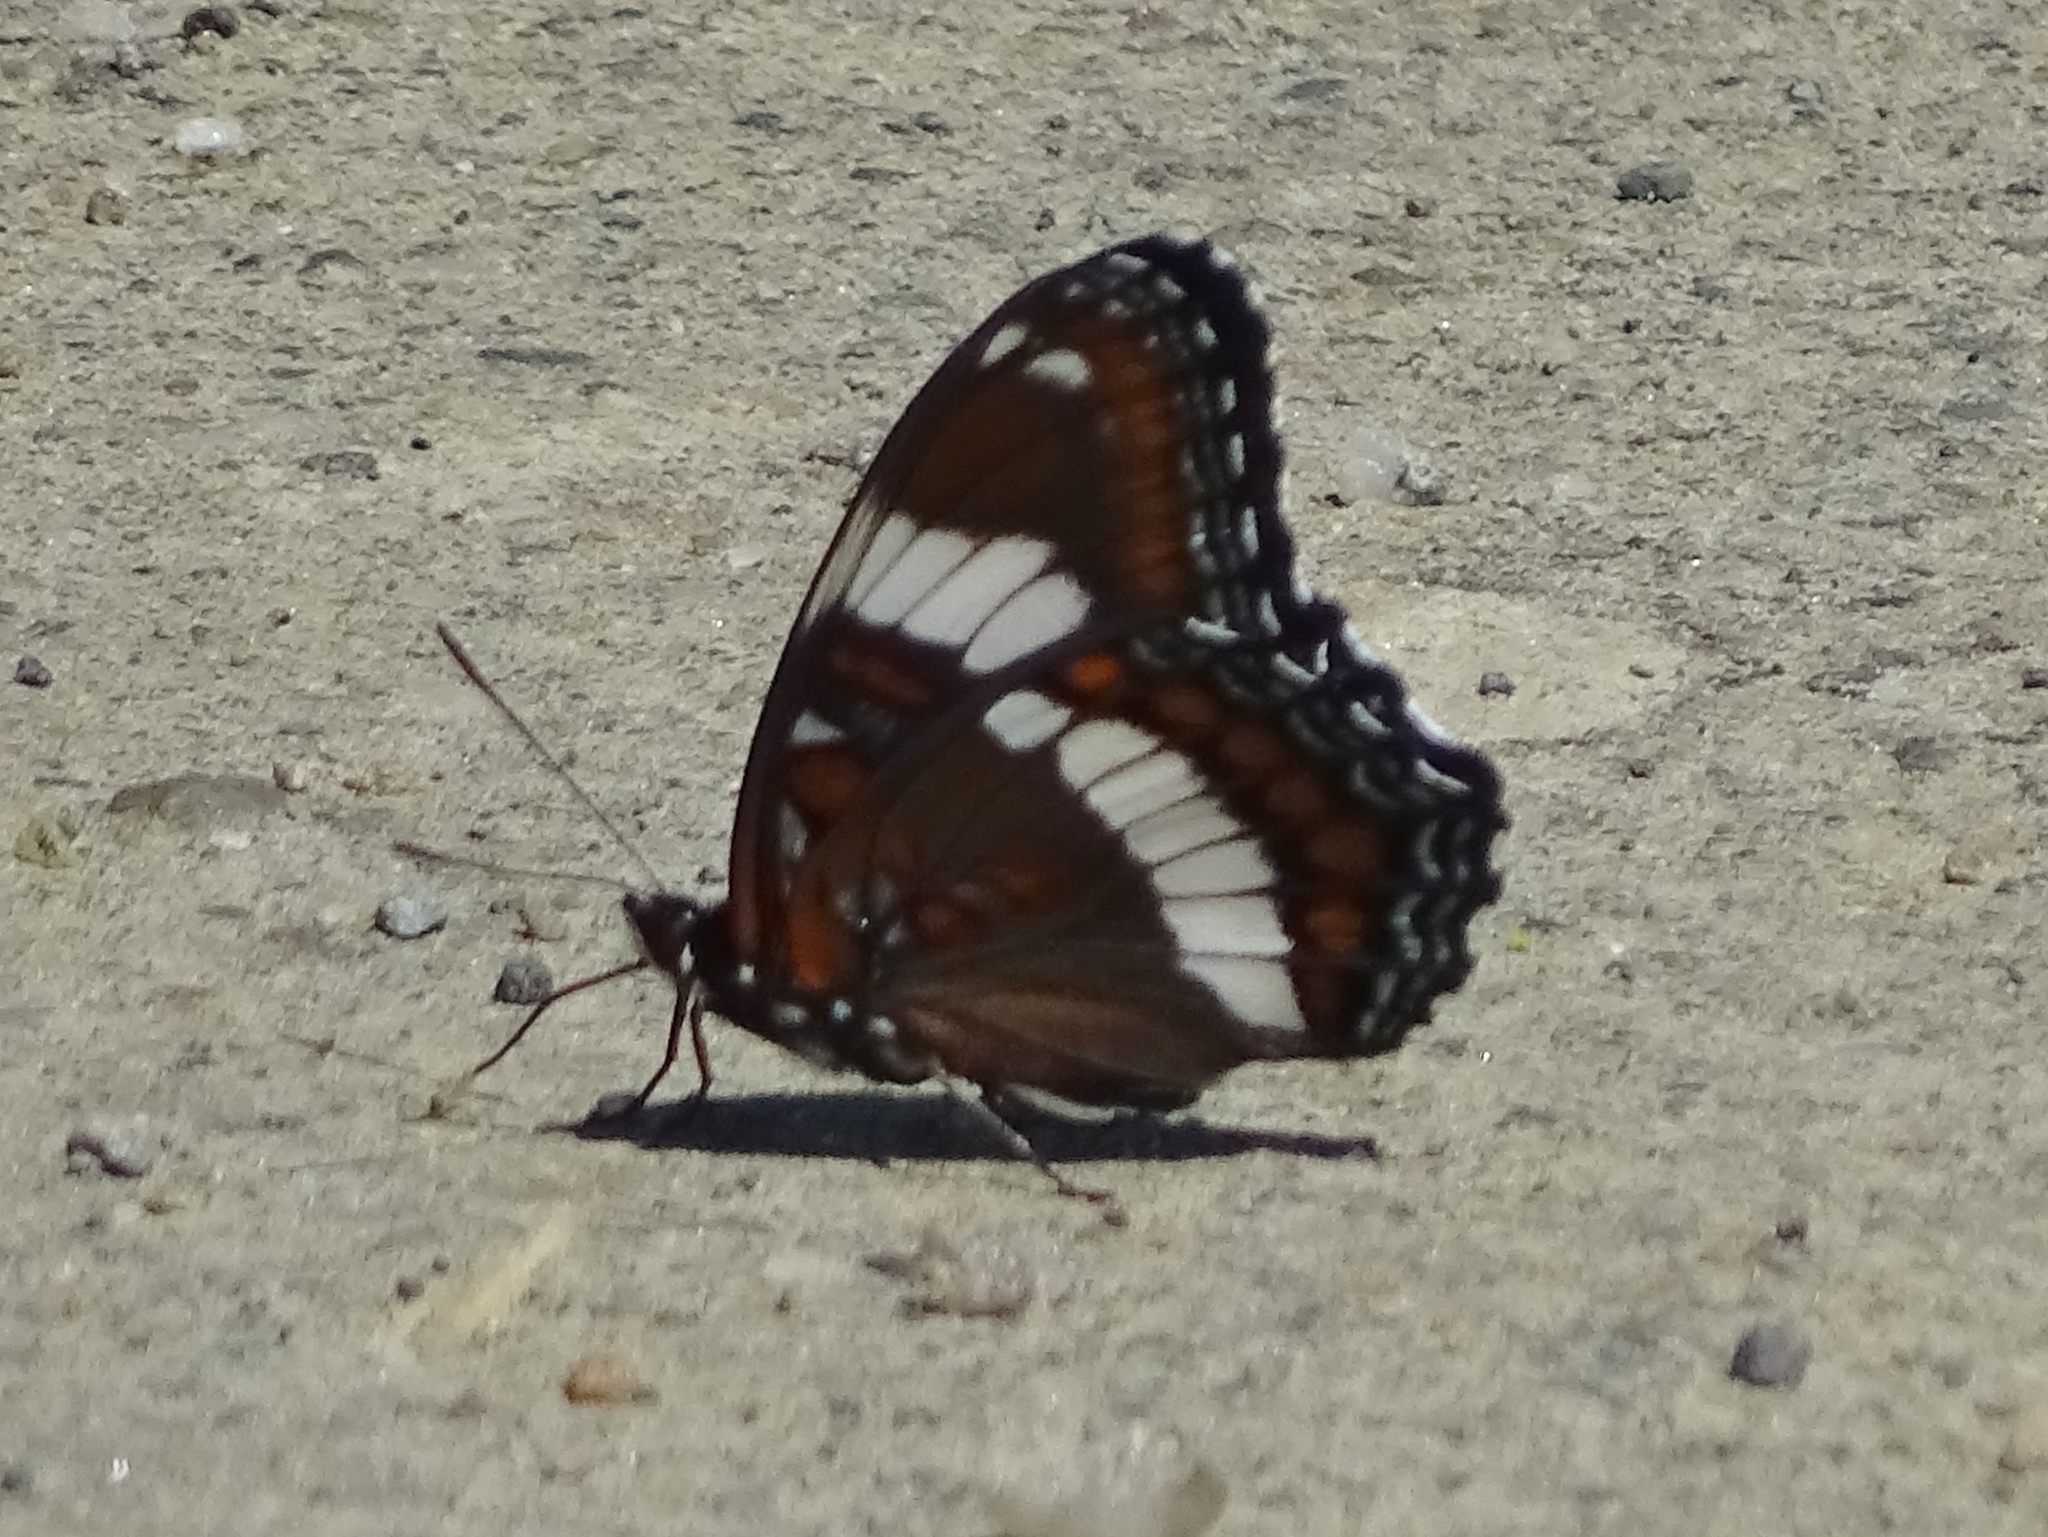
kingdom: Animalia
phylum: Arthropoda
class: Insecta
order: Lepidoptera
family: Nymphalidae
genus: Limenitis
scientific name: Limenitis arthemis
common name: Red-spotted admiral
